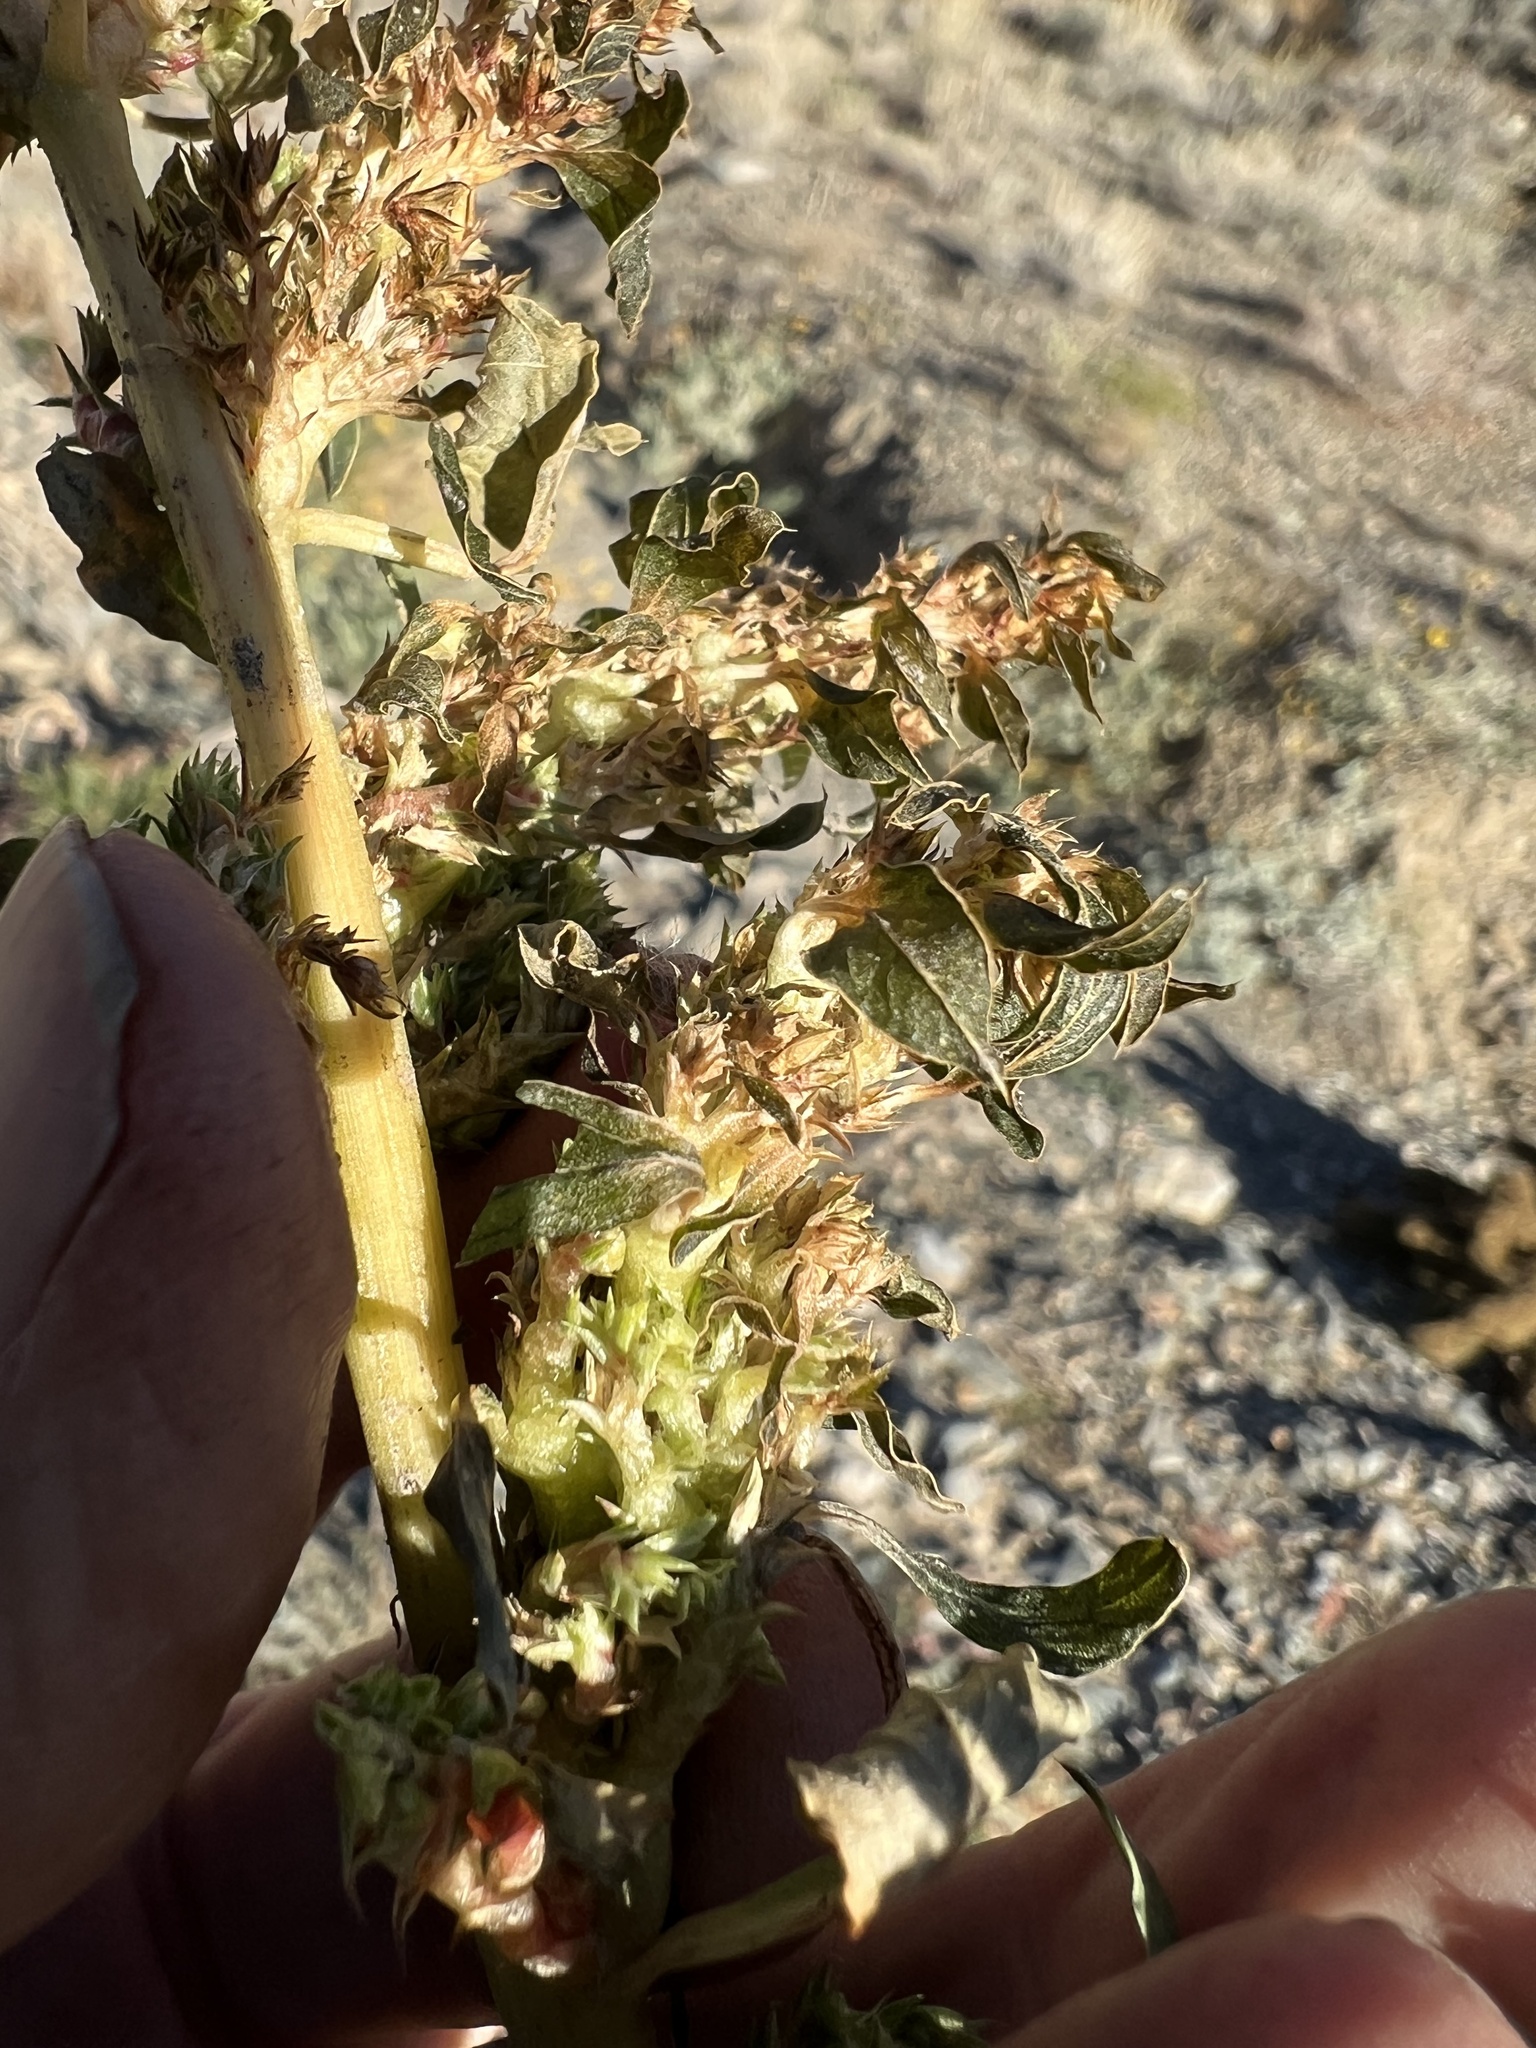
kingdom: Plantae
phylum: Tracheophyta
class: Magnoliopsida
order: Caryophyllales
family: Amaranthaceae
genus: Amaranthus
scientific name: Amaranthus blitoides
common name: Prostrate pigweed
